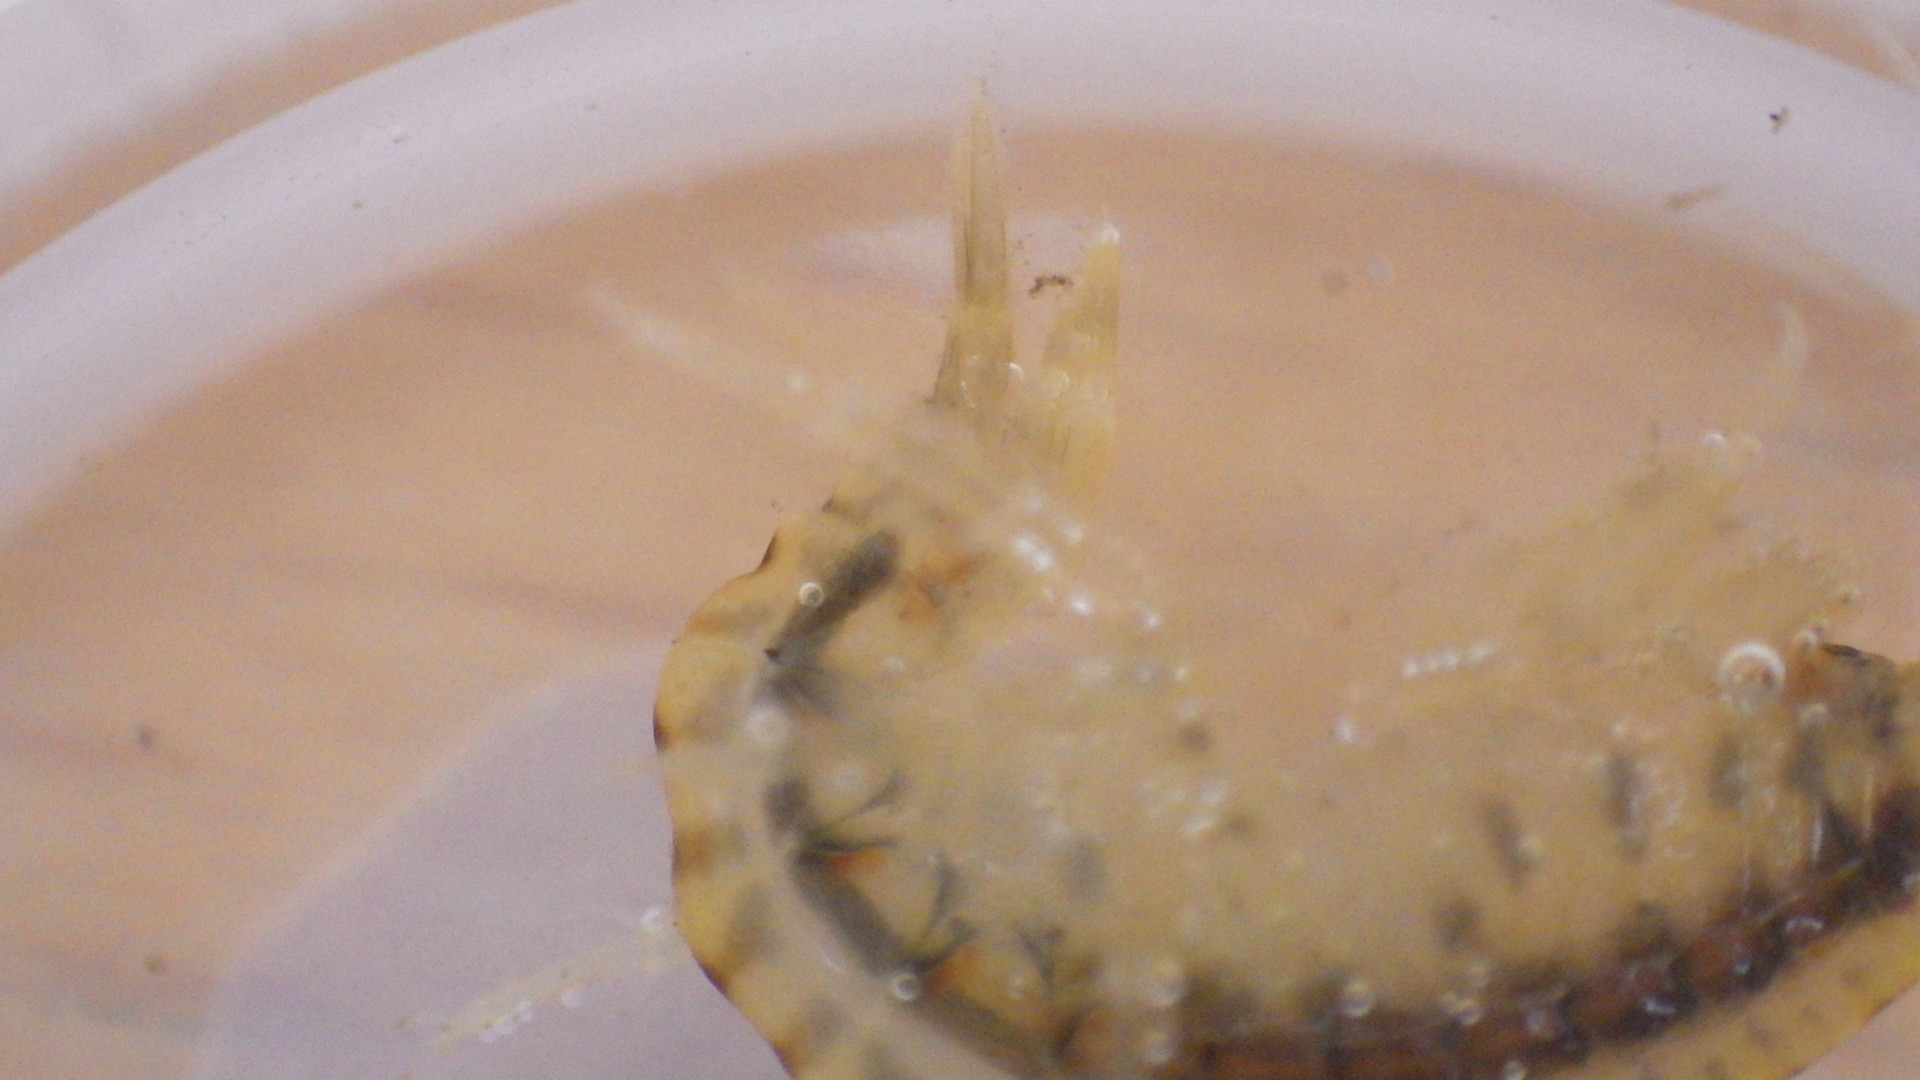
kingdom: Animalia
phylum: Arthropoda
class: Malacostraca
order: Amphipoda
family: Gammaridae
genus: Gammarus
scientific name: Gammarus fasciatus
